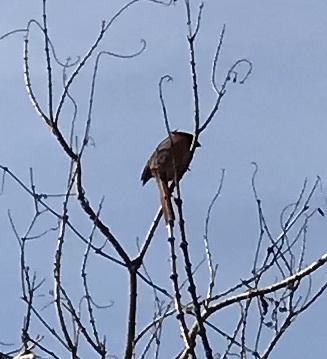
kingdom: Animalia
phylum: Chordata
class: Aves
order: Passeriformes
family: Cardinalidae
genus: Cardinalis
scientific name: Cardinalis cardinalis
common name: Northern cardinal
